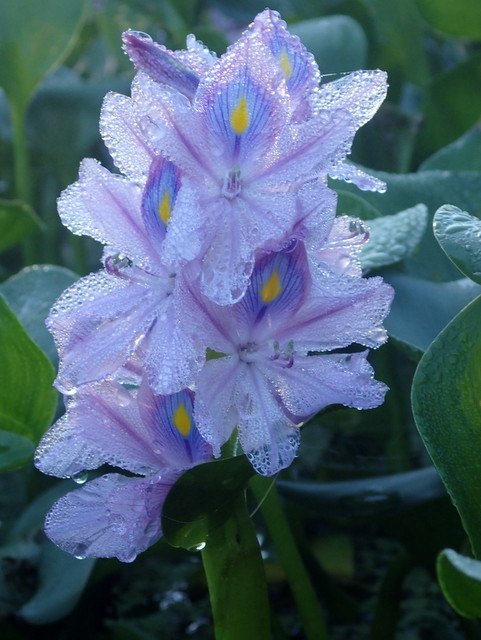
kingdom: Plantae
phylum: Tracheophyta
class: Liliopsida
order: Commelinales
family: Pontederiaceae
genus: Pontederia
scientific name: Pontederia crassipes
